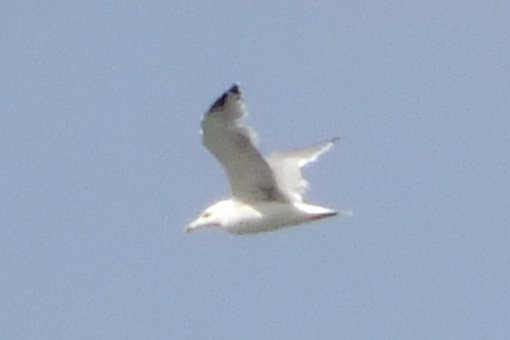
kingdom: Animalia
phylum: Chordata
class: Aves
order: Charadriiformes
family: Laridae
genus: Larus
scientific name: Larus michahellis
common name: Yellow-legged gull
